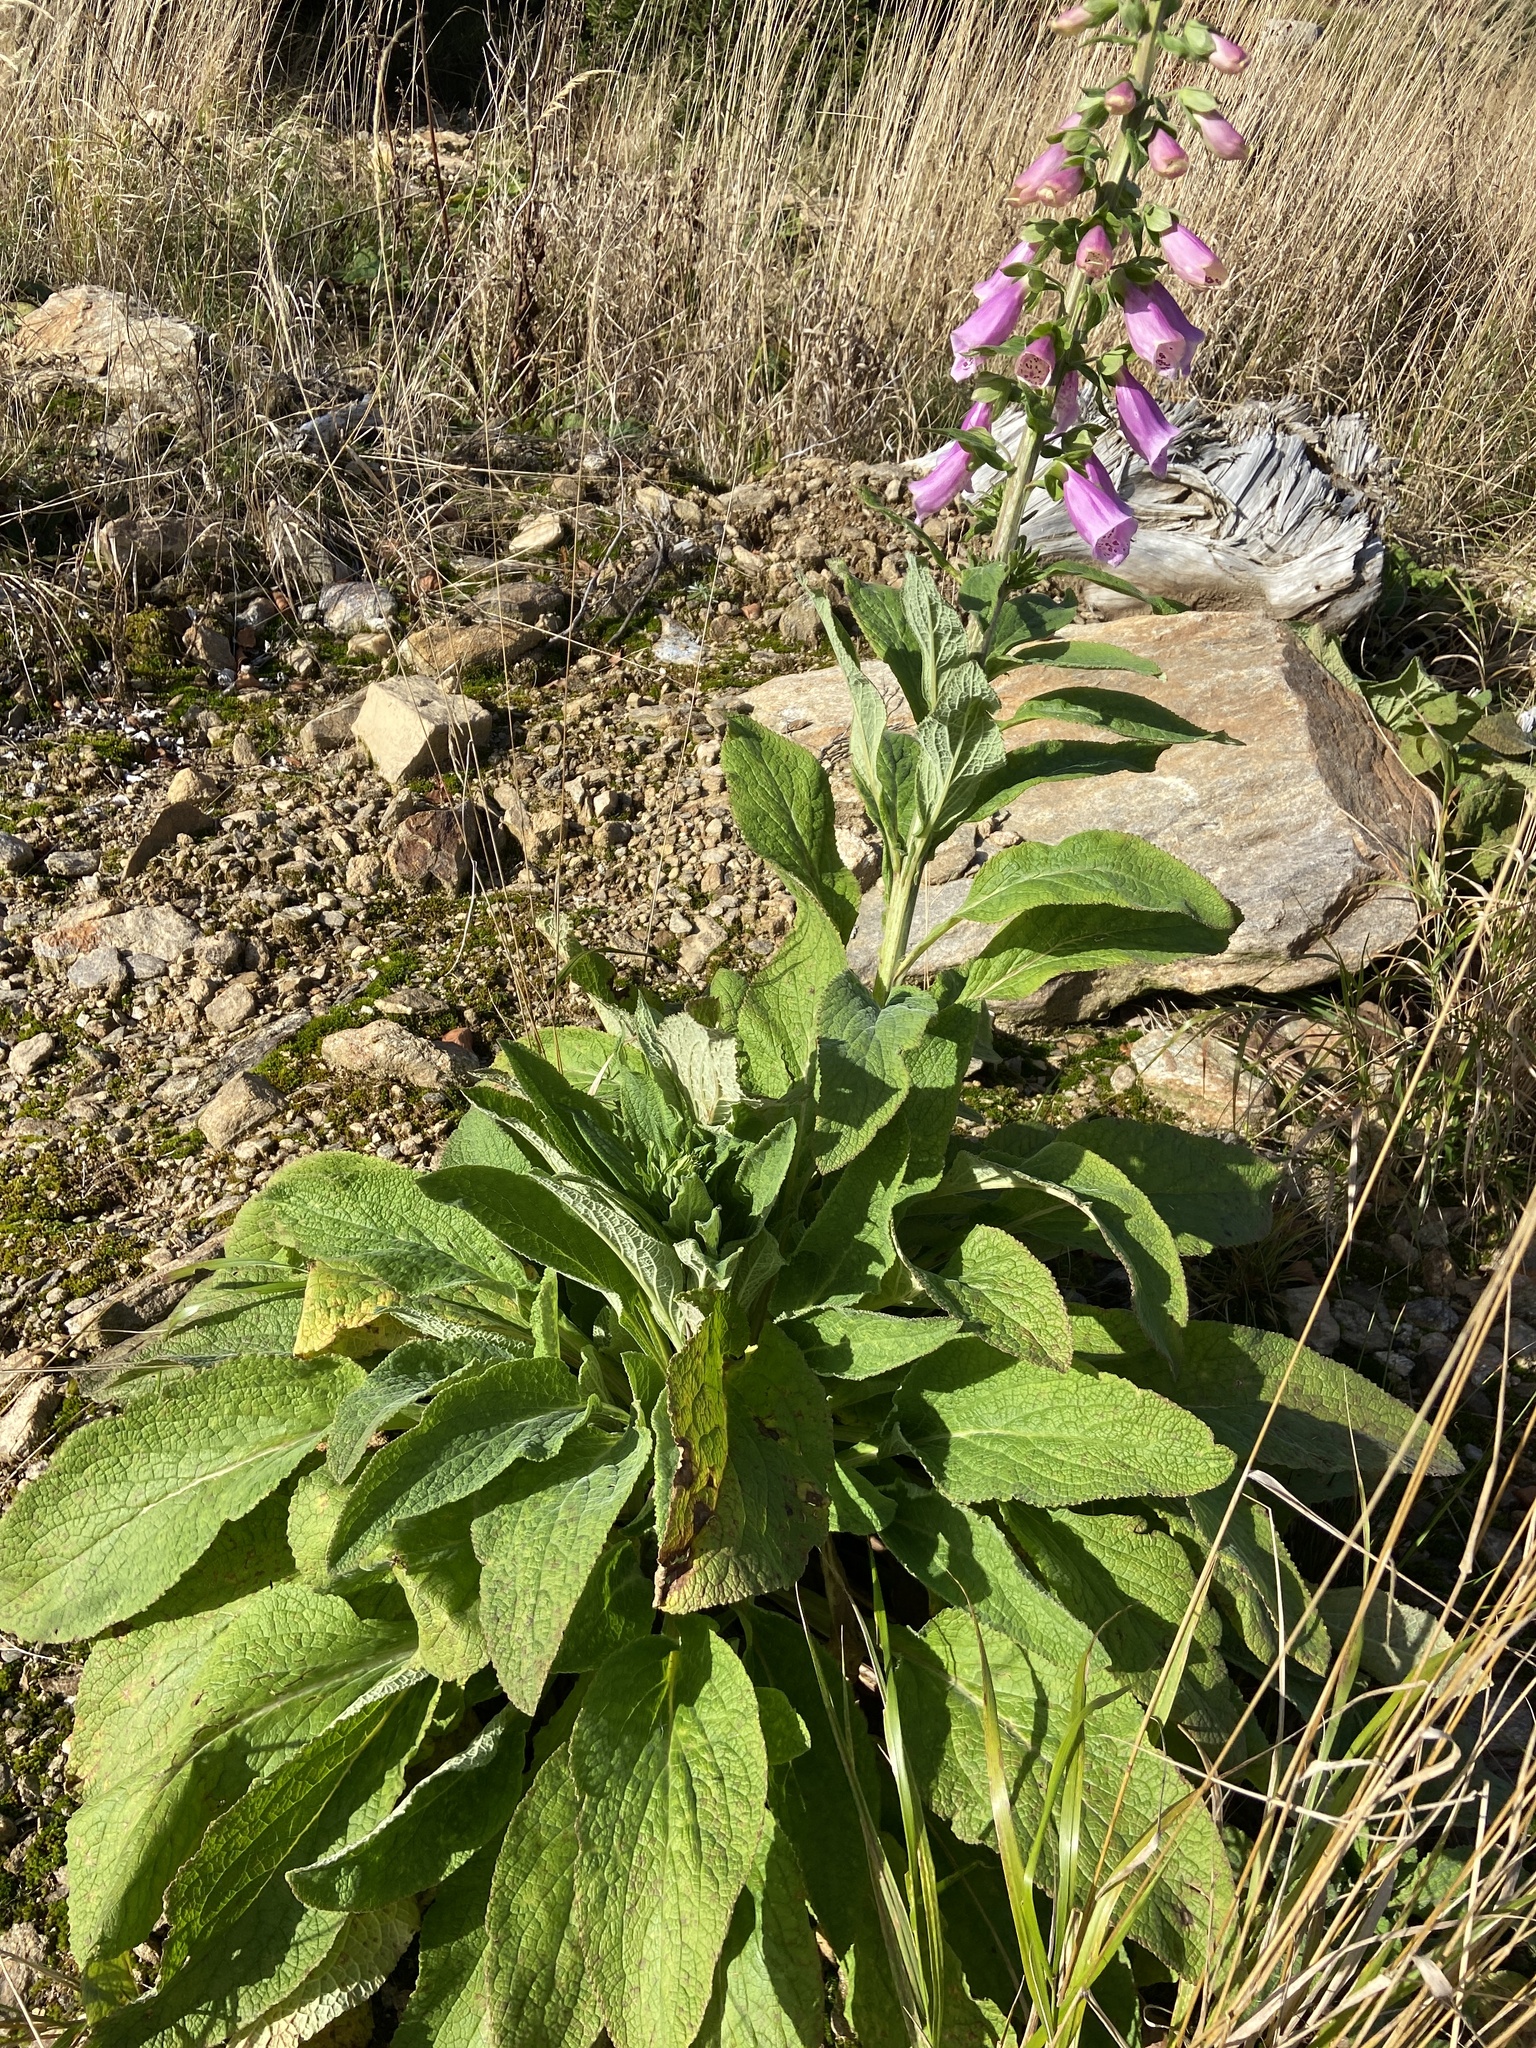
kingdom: Plantae
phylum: Tracheophyta
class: Magnoliopsida
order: Lamiales
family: Plantaginaceae
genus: Digitalis
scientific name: Digitalis purpurea
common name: Foxglove
